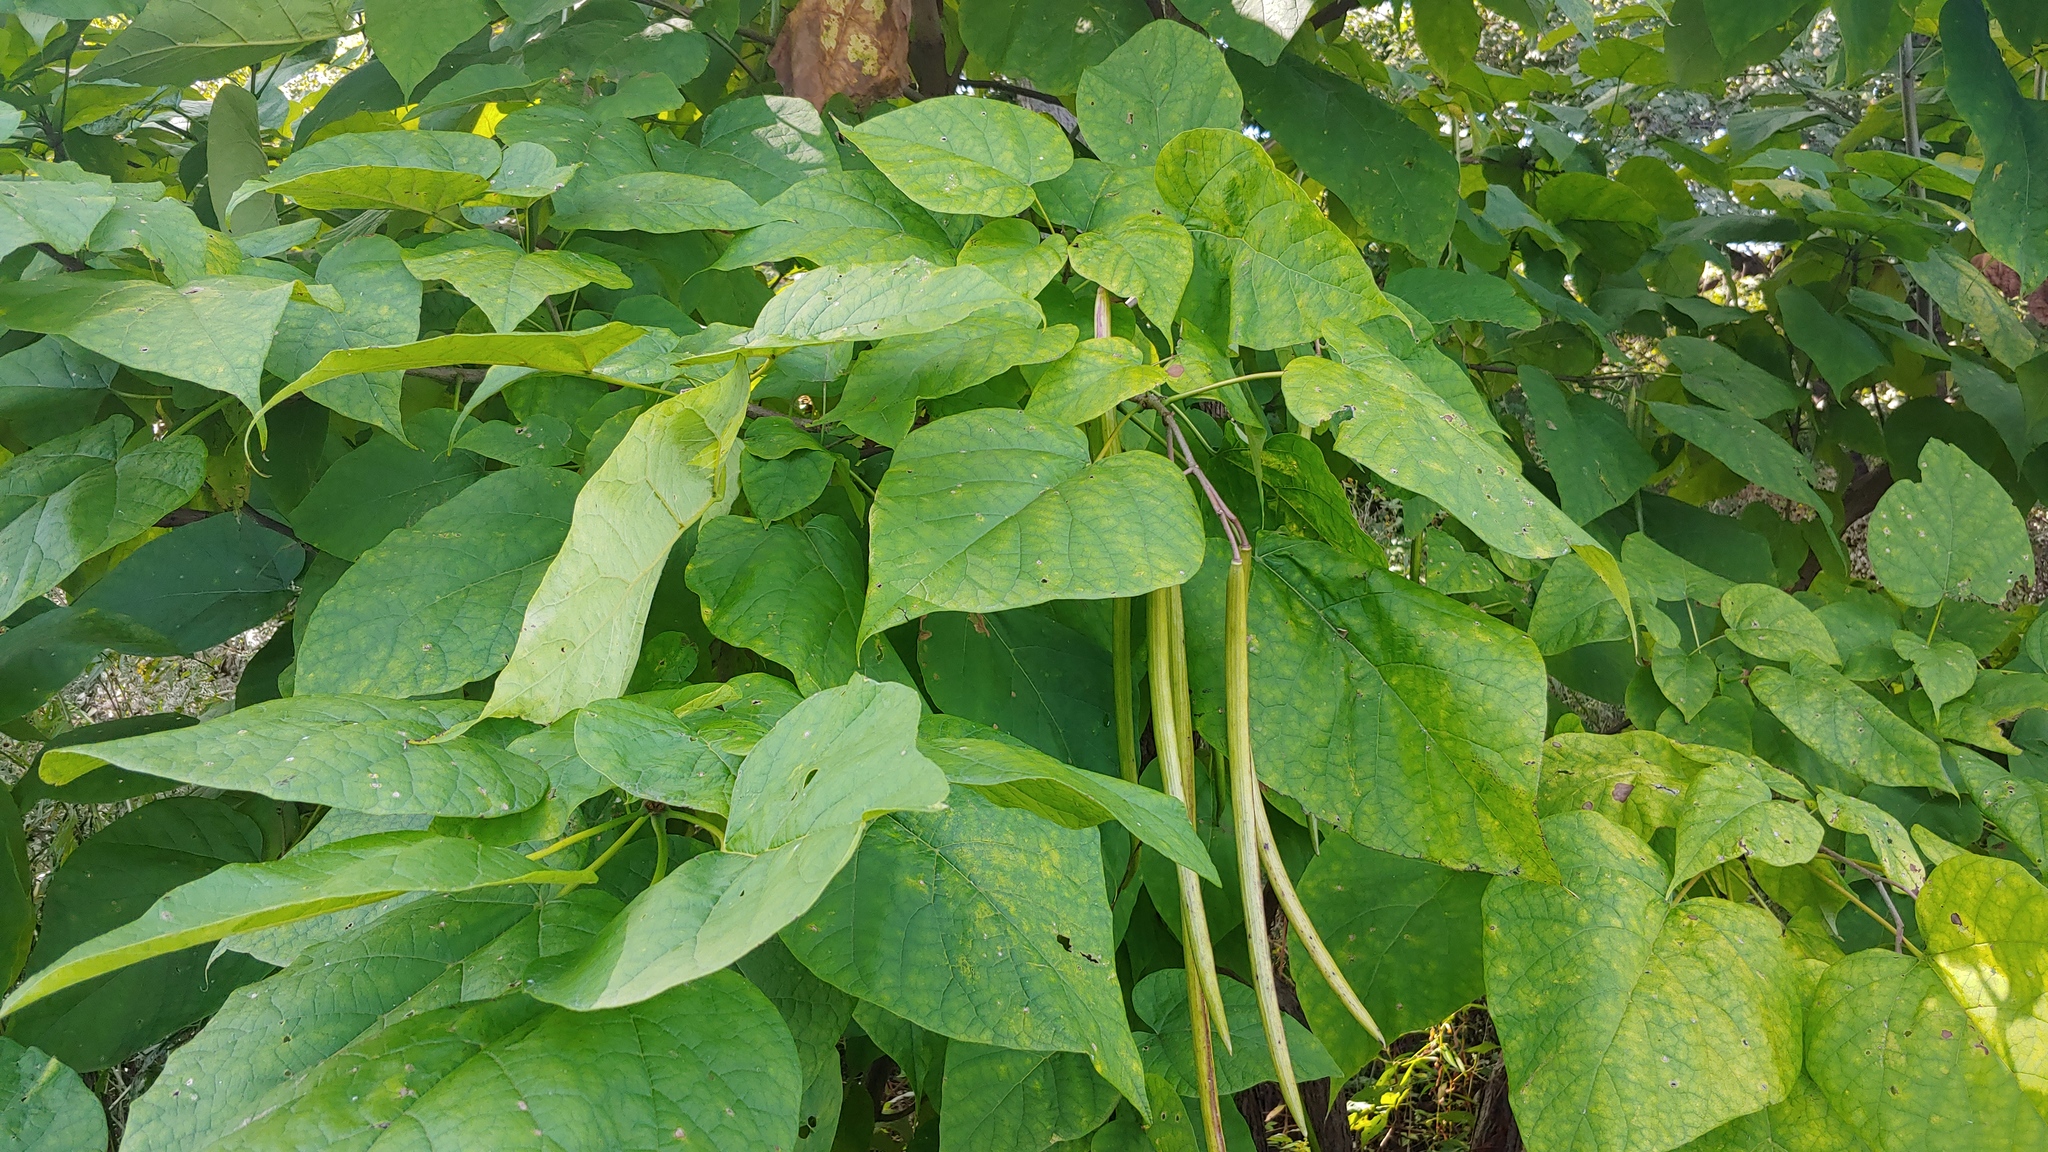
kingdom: Plantae
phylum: Tracheophyta
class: Magnoliopsida
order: Lamiales
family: Bignoniaceae
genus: Catalpa
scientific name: Catalpa speciosa
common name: Northern catalpa
